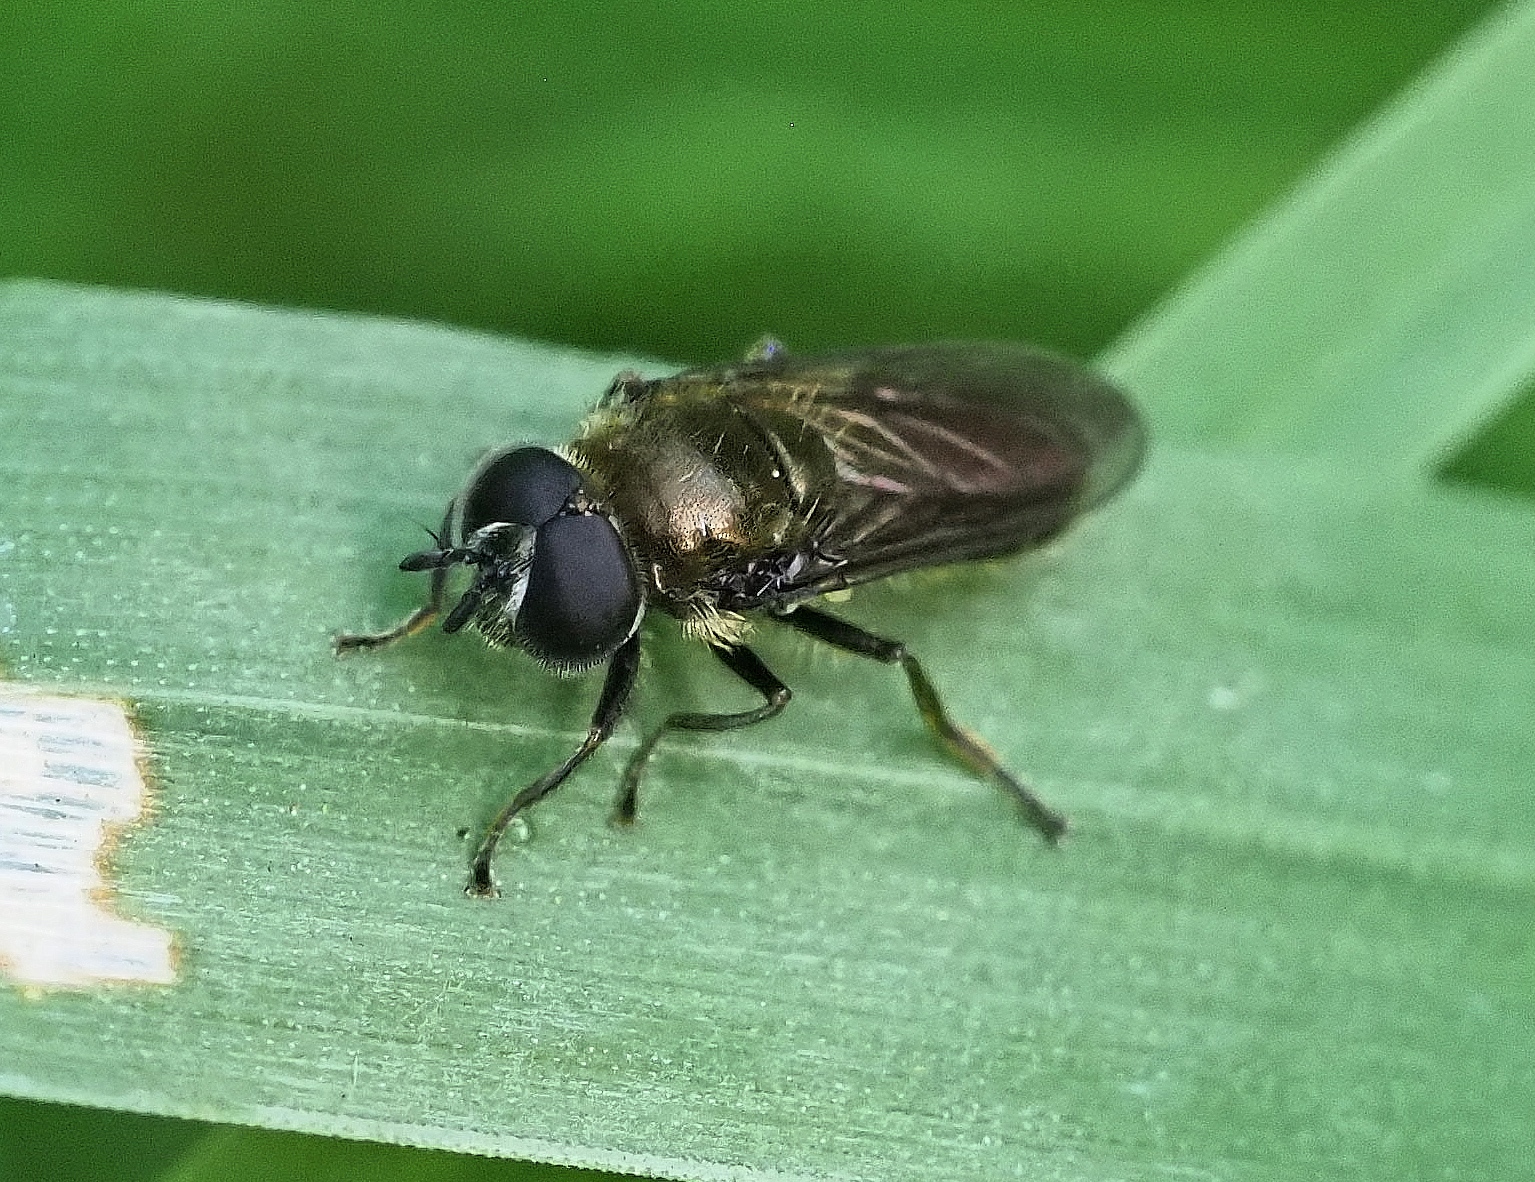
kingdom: Animalia
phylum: Arthropoda
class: Insecta
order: Diptera
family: Syrphidae
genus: Pipizella
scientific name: Pipizella
